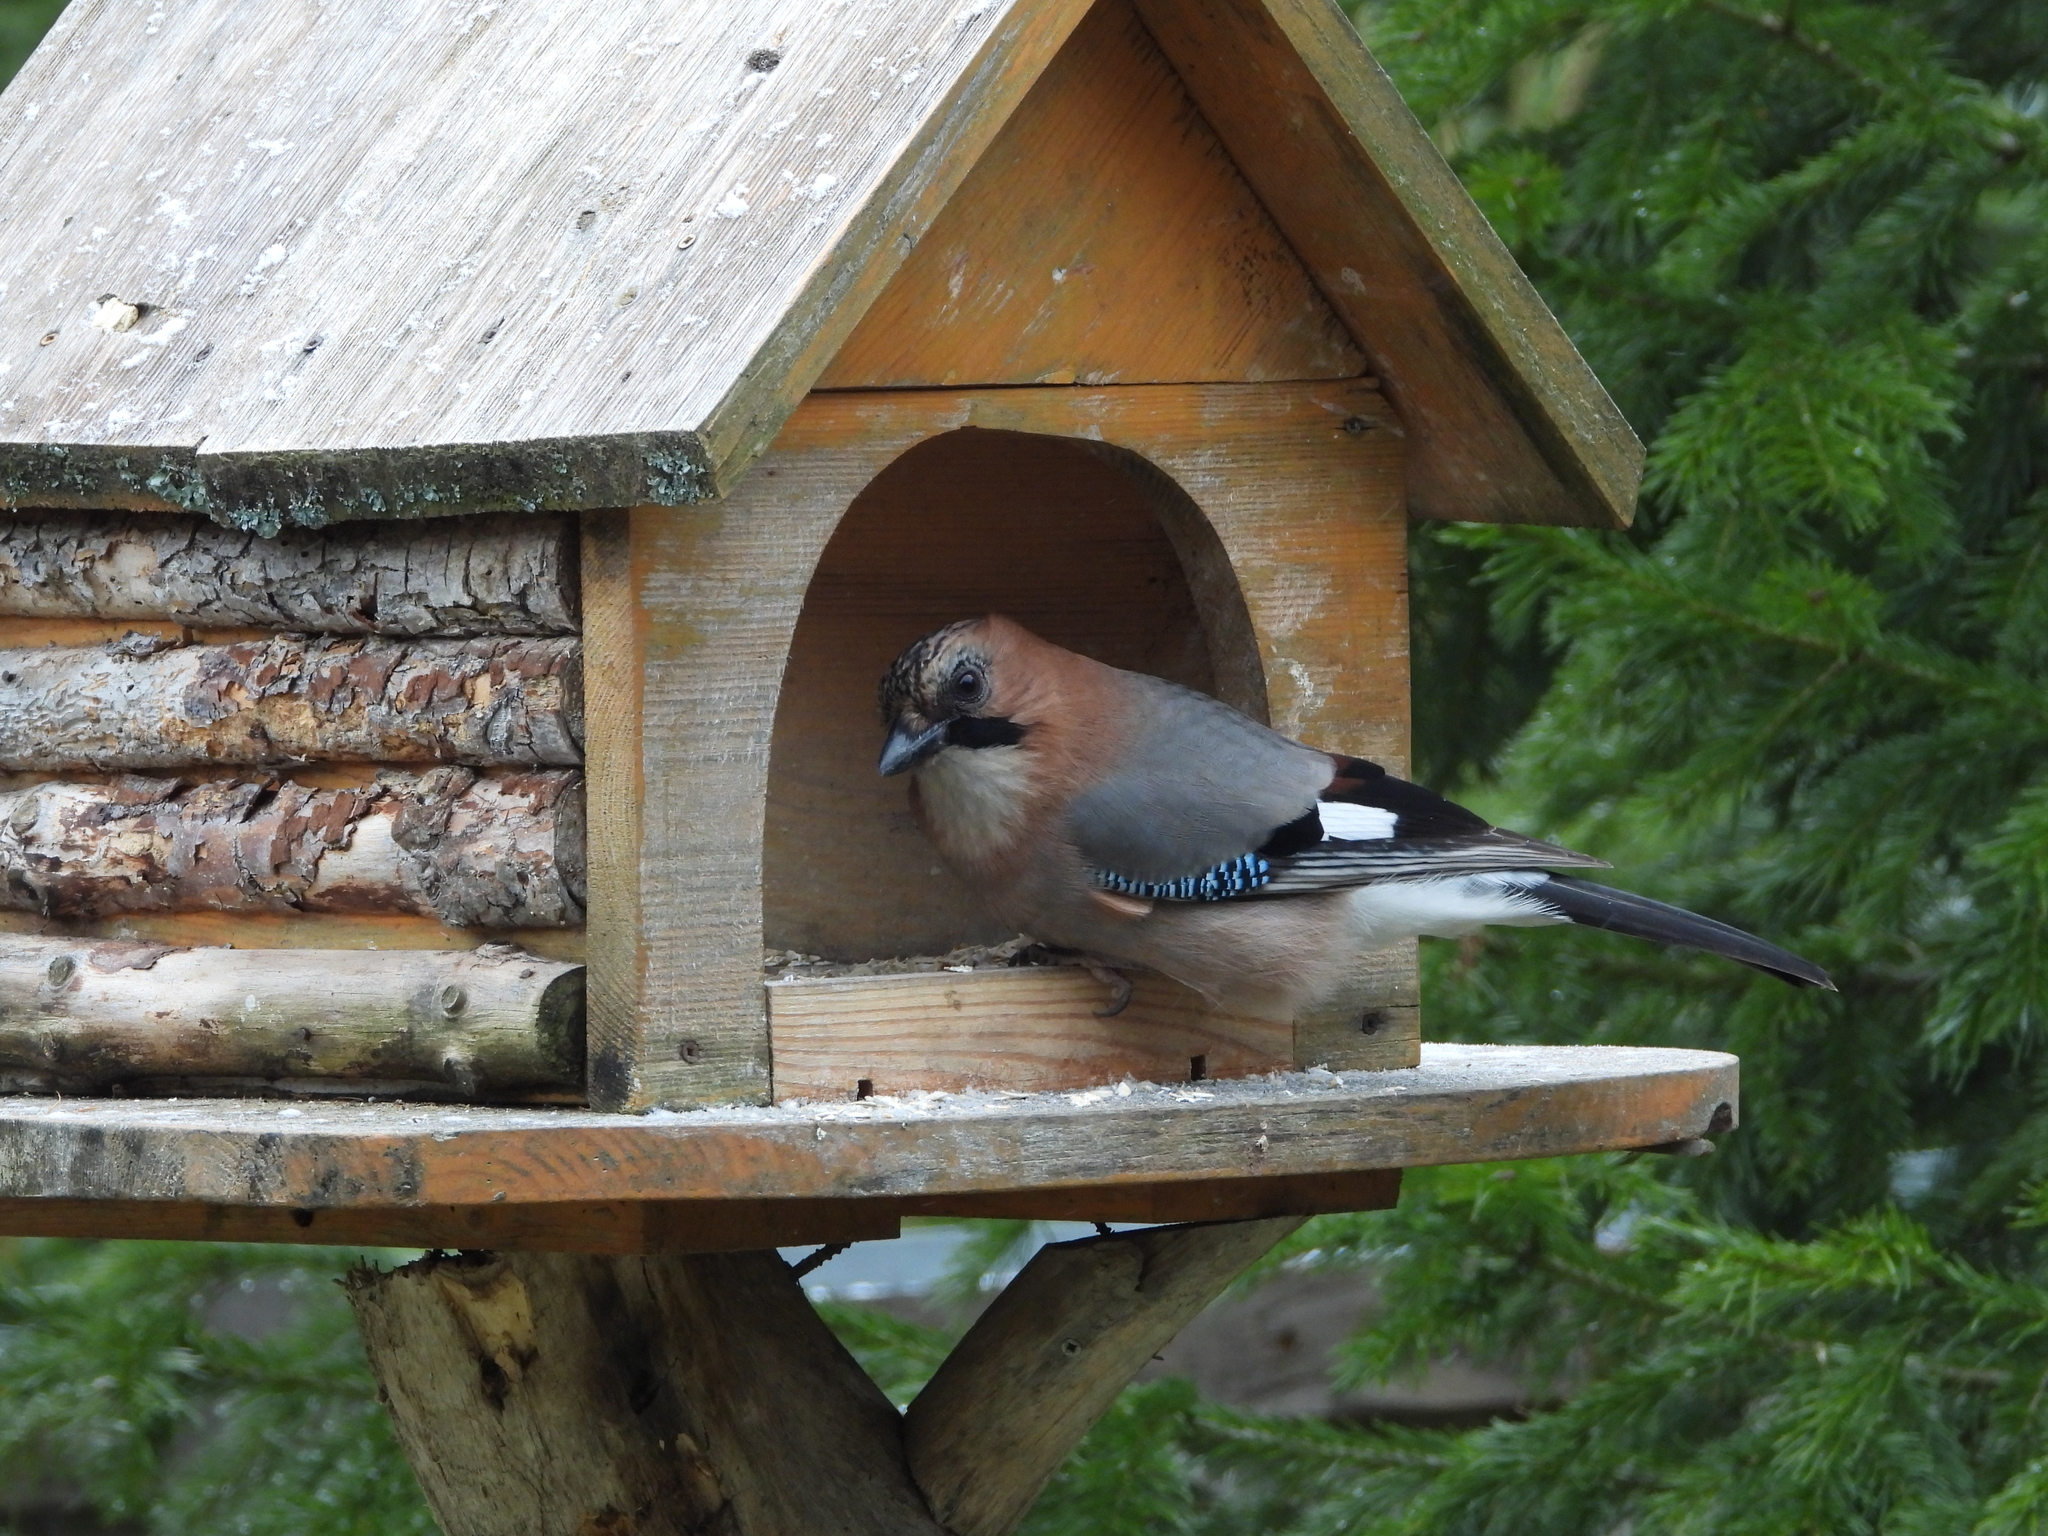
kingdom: Animalia
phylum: Chordata
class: Aves
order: Passeriformes
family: Corvidae
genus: Garrulus
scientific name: Garrulus glandarius
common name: Eurasian jay
